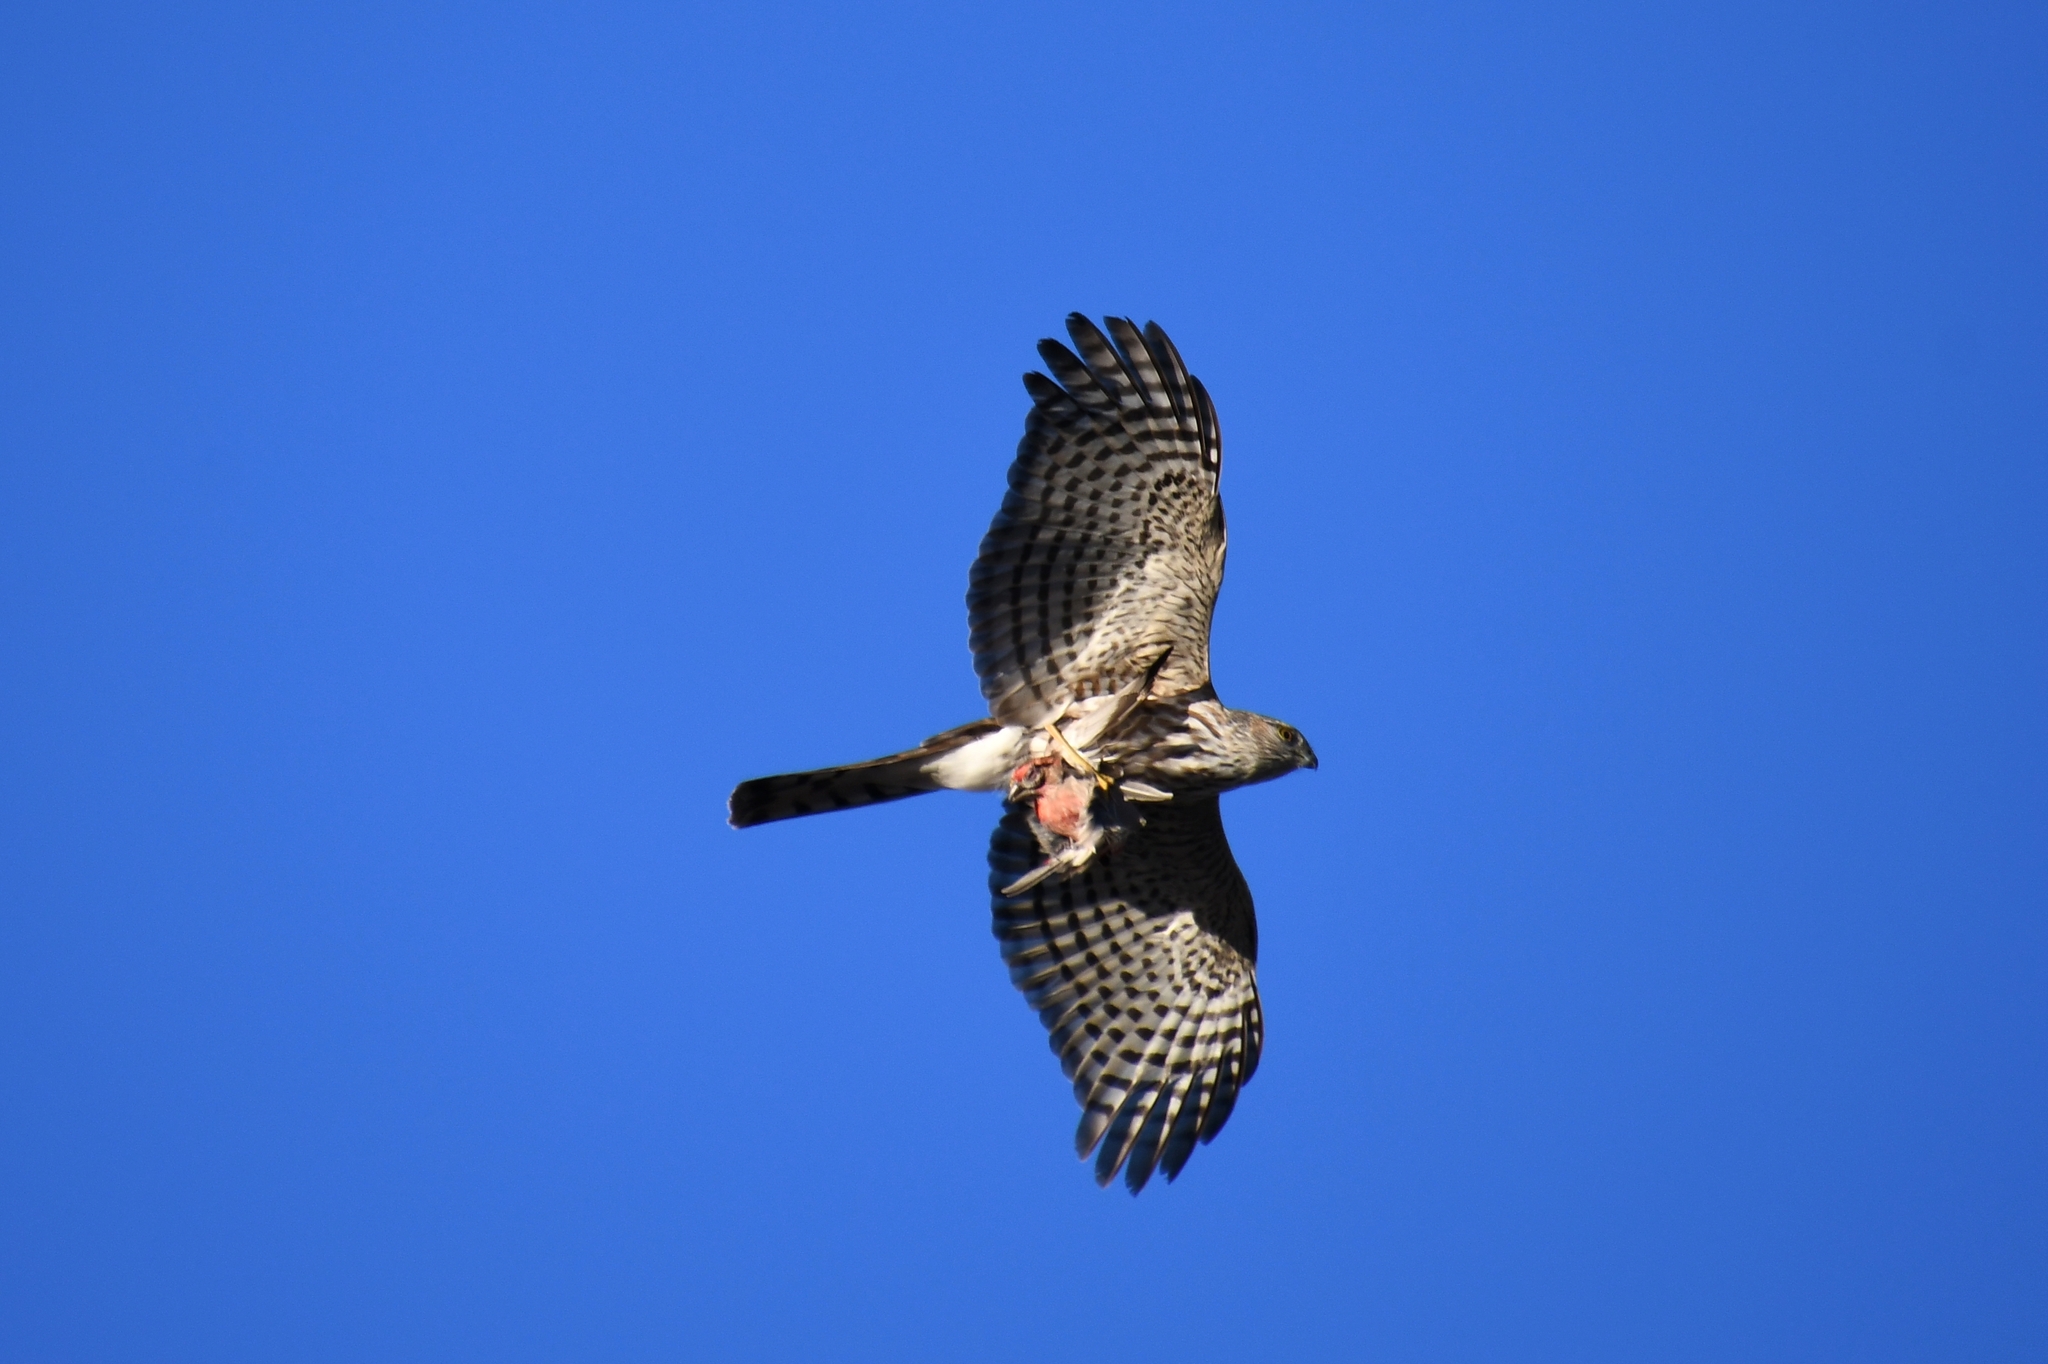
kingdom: Animalia
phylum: Chordata
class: Aves
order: Accipitriformes
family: Accipitridae
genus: Accipiter
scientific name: Accipiter striatus
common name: Sharp-shinned hawk
